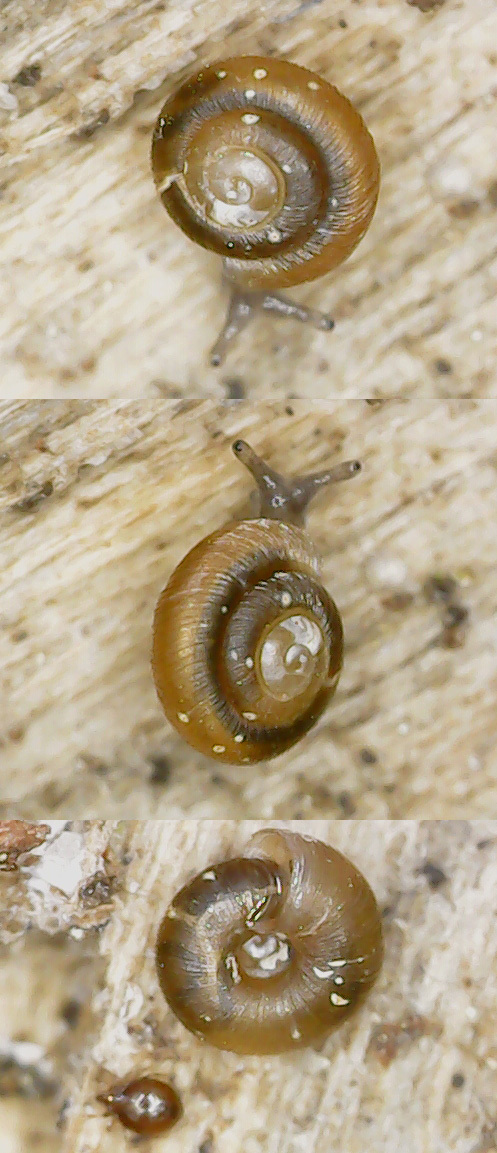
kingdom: Animalia
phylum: Mollusca
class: Gastropoda
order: Stylommatophora
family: Punctidae
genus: Punctum
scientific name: Punctum pygmaeum
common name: Dwarf snail
